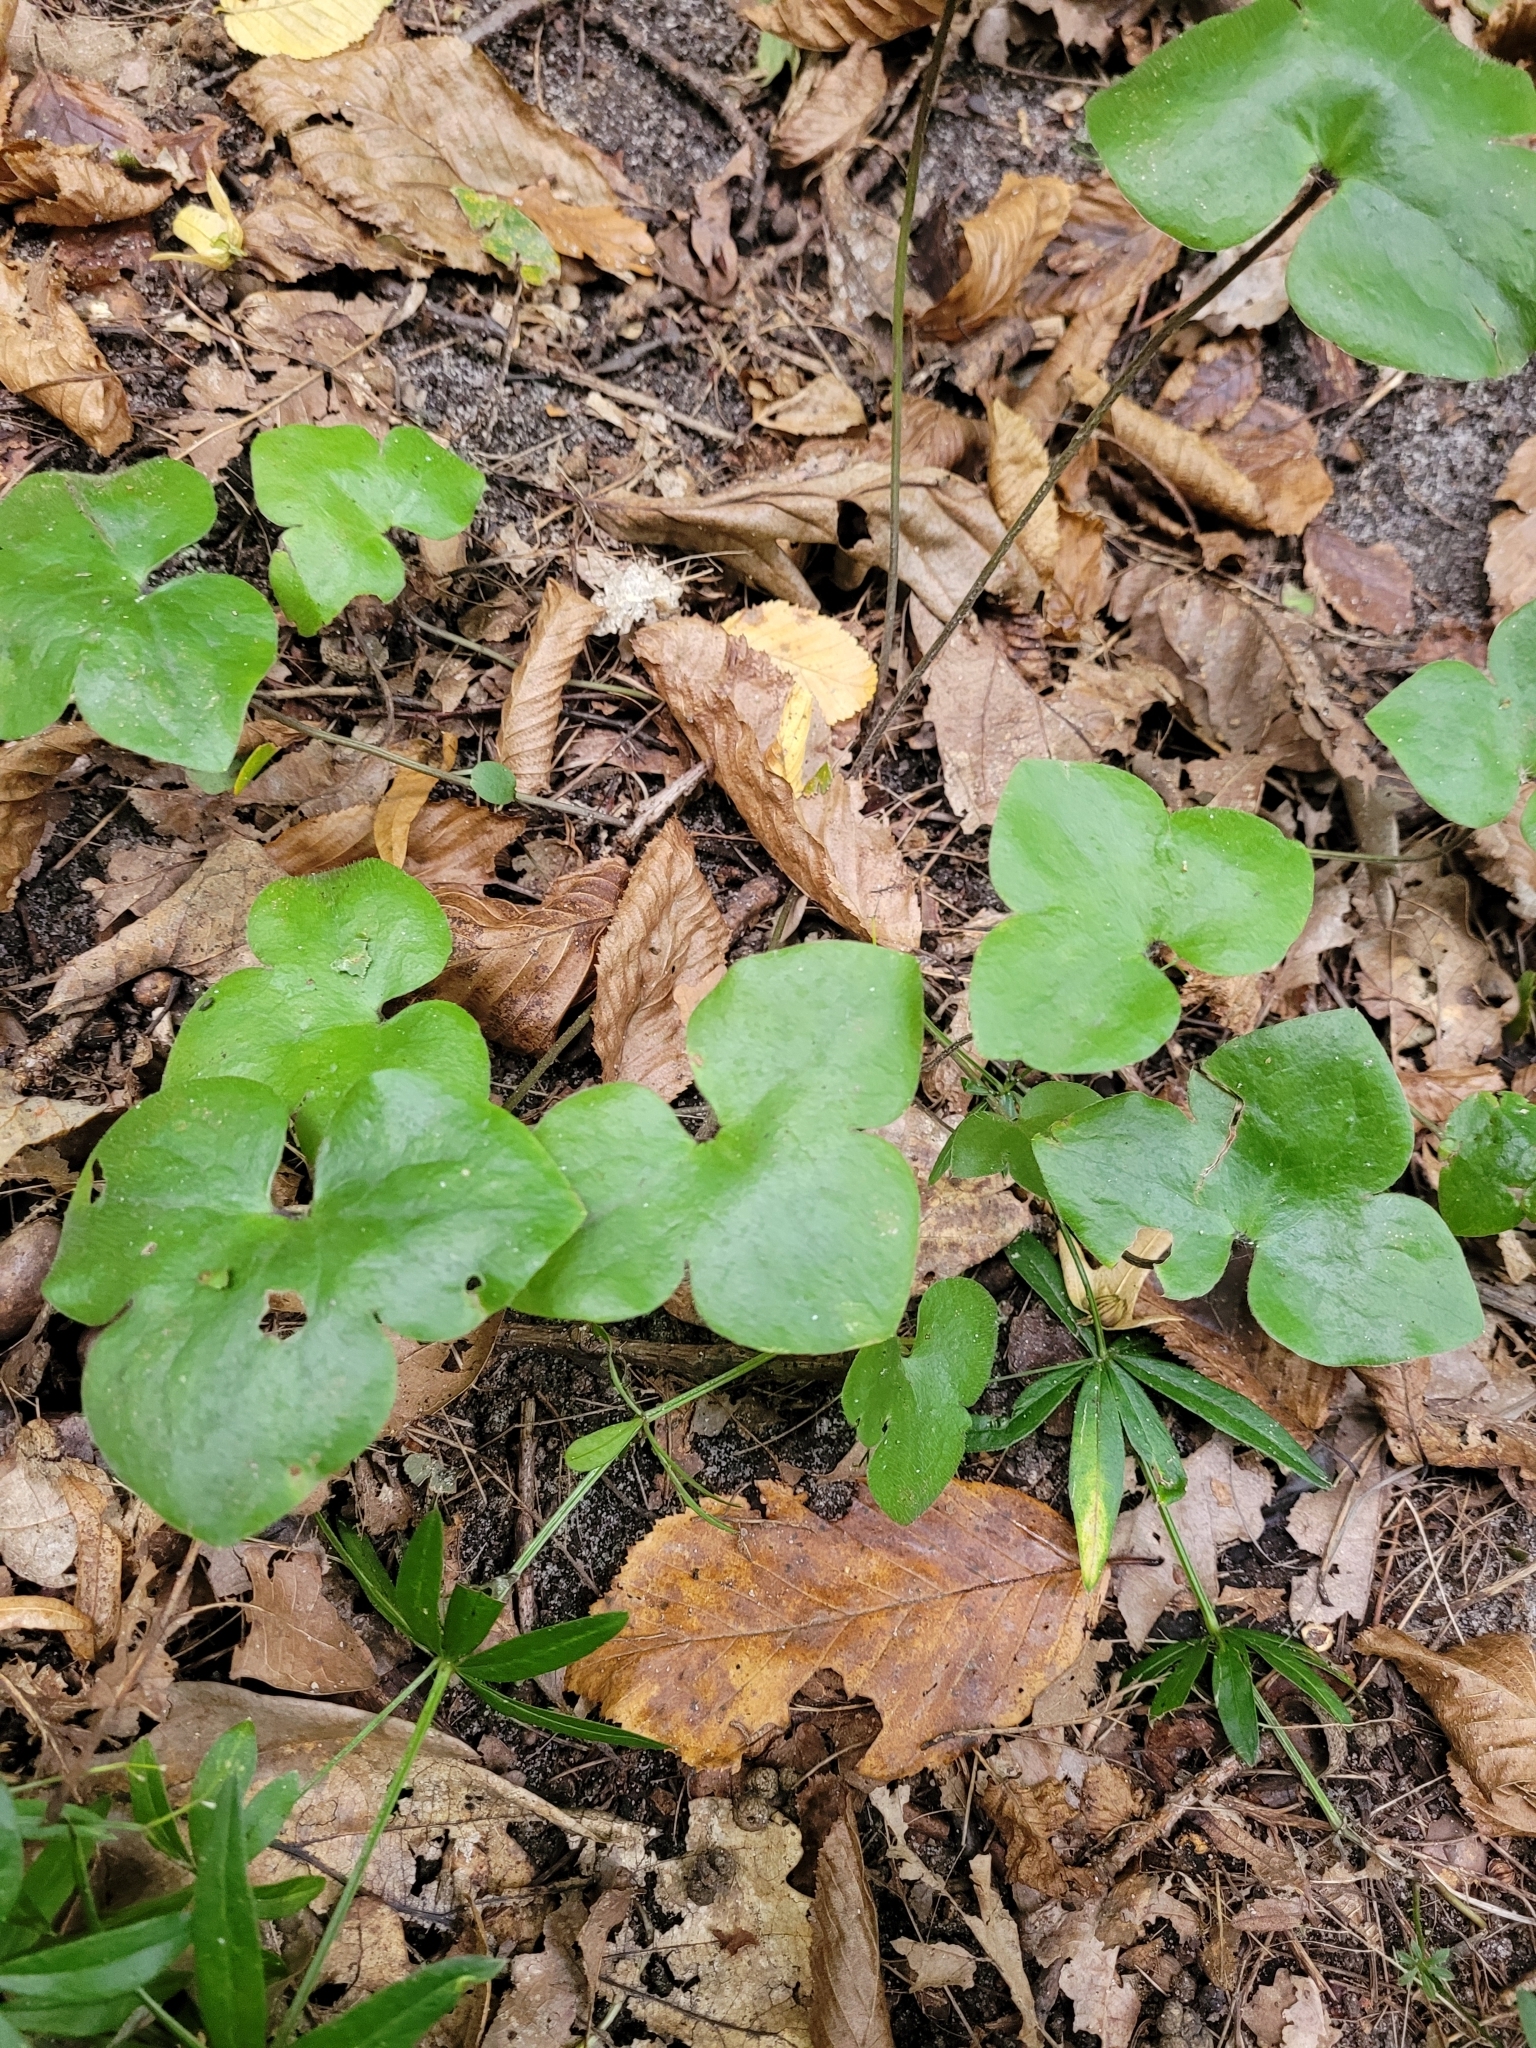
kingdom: Plantae
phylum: Tracheophyta
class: Magnoliopsida
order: Ranunculales
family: Ranunculaceae
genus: Hepatica
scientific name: Hepatica nobilis
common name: Liverleaf
